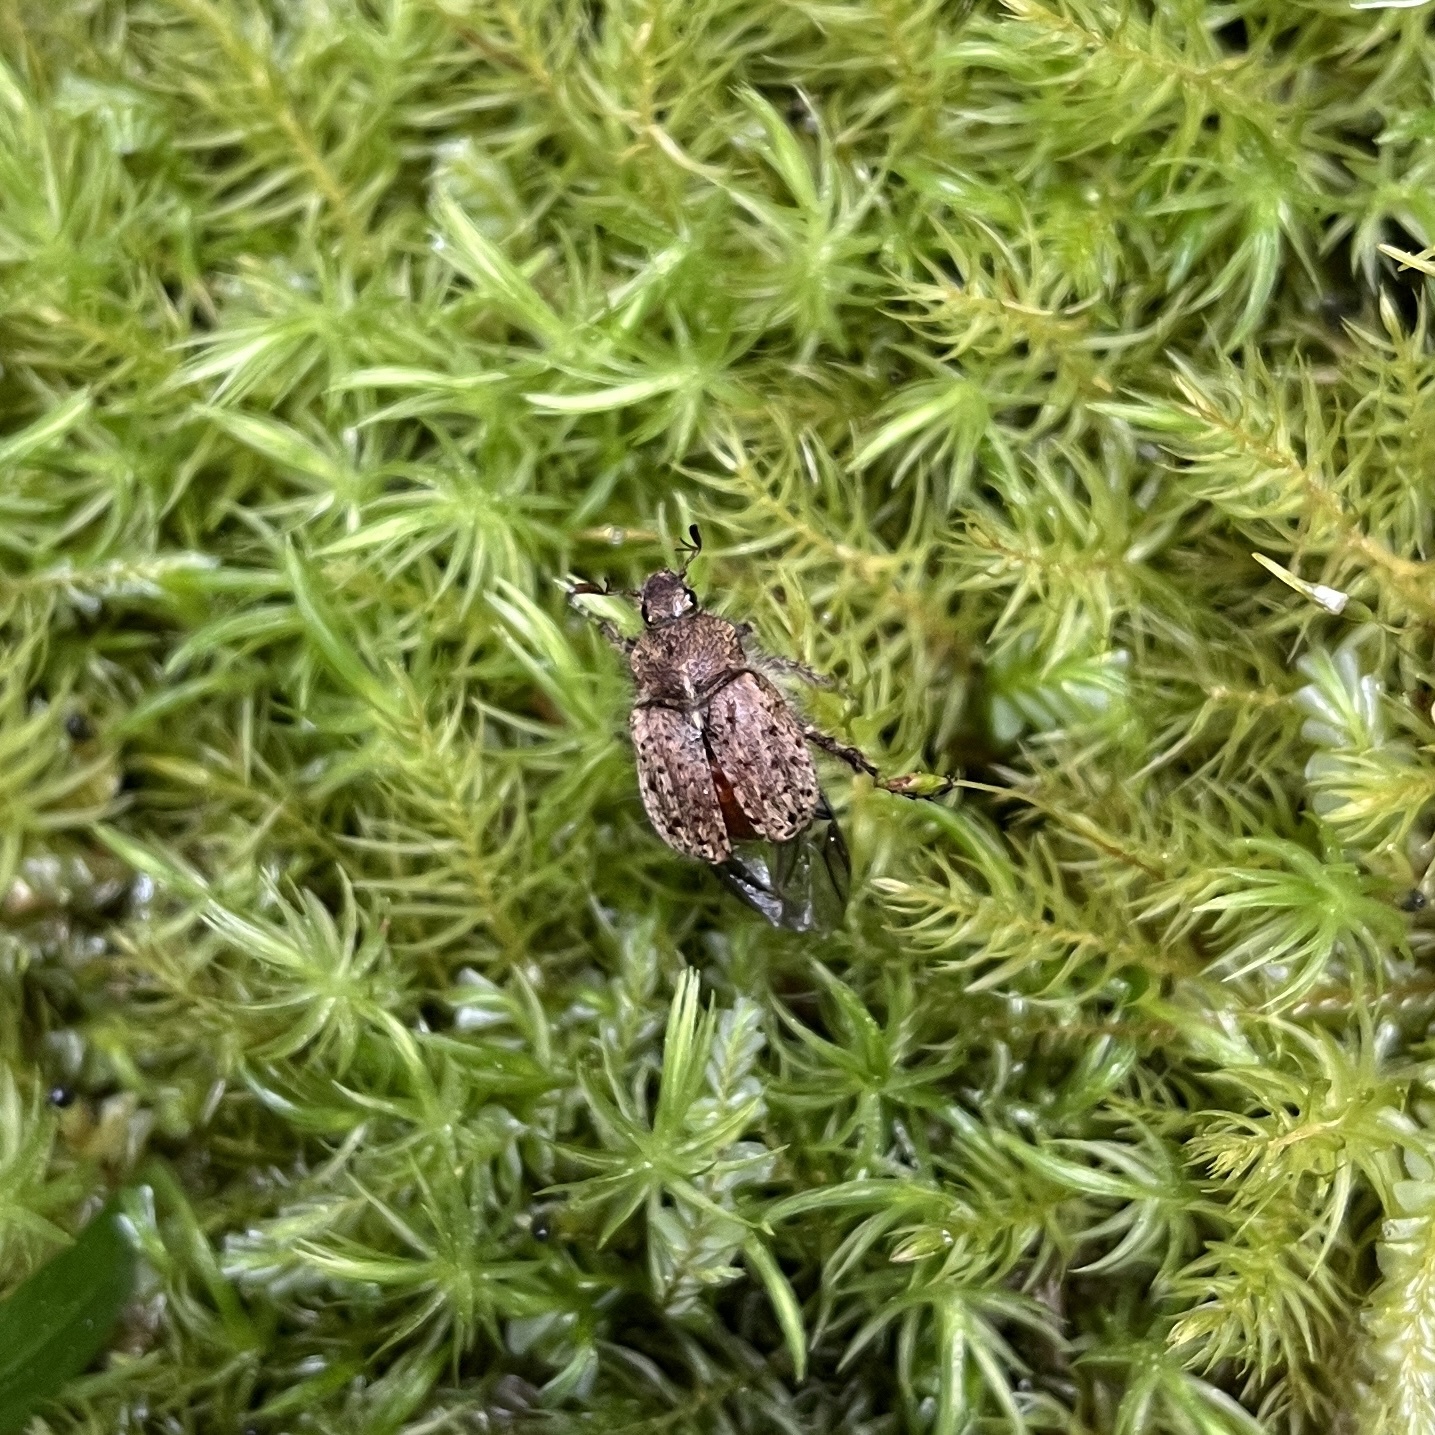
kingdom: Animalia
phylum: Arthropoda
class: Insecta
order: Coleoptera
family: Scarabaeidae
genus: Diaphylla
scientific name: Diaphylla granulata
